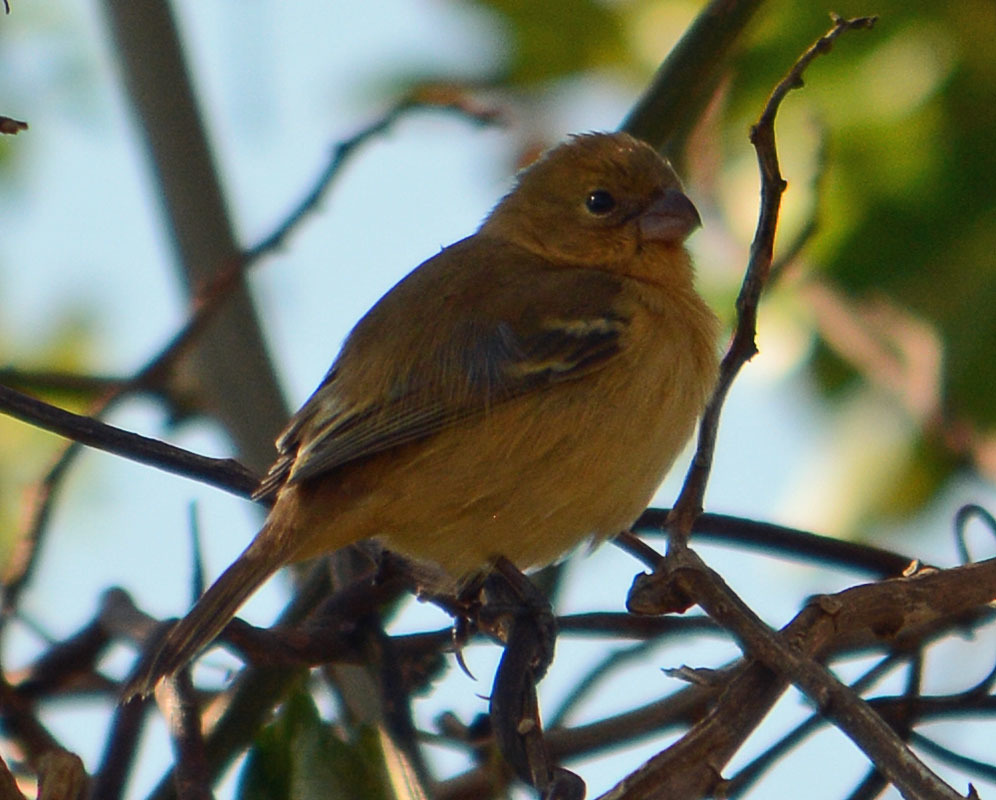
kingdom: Animalia
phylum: Chordata
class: Aves
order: Passeriformes
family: Thraupidae
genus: Sporophila
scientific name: Sporophila morelleti
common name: Morelet's seedeater
